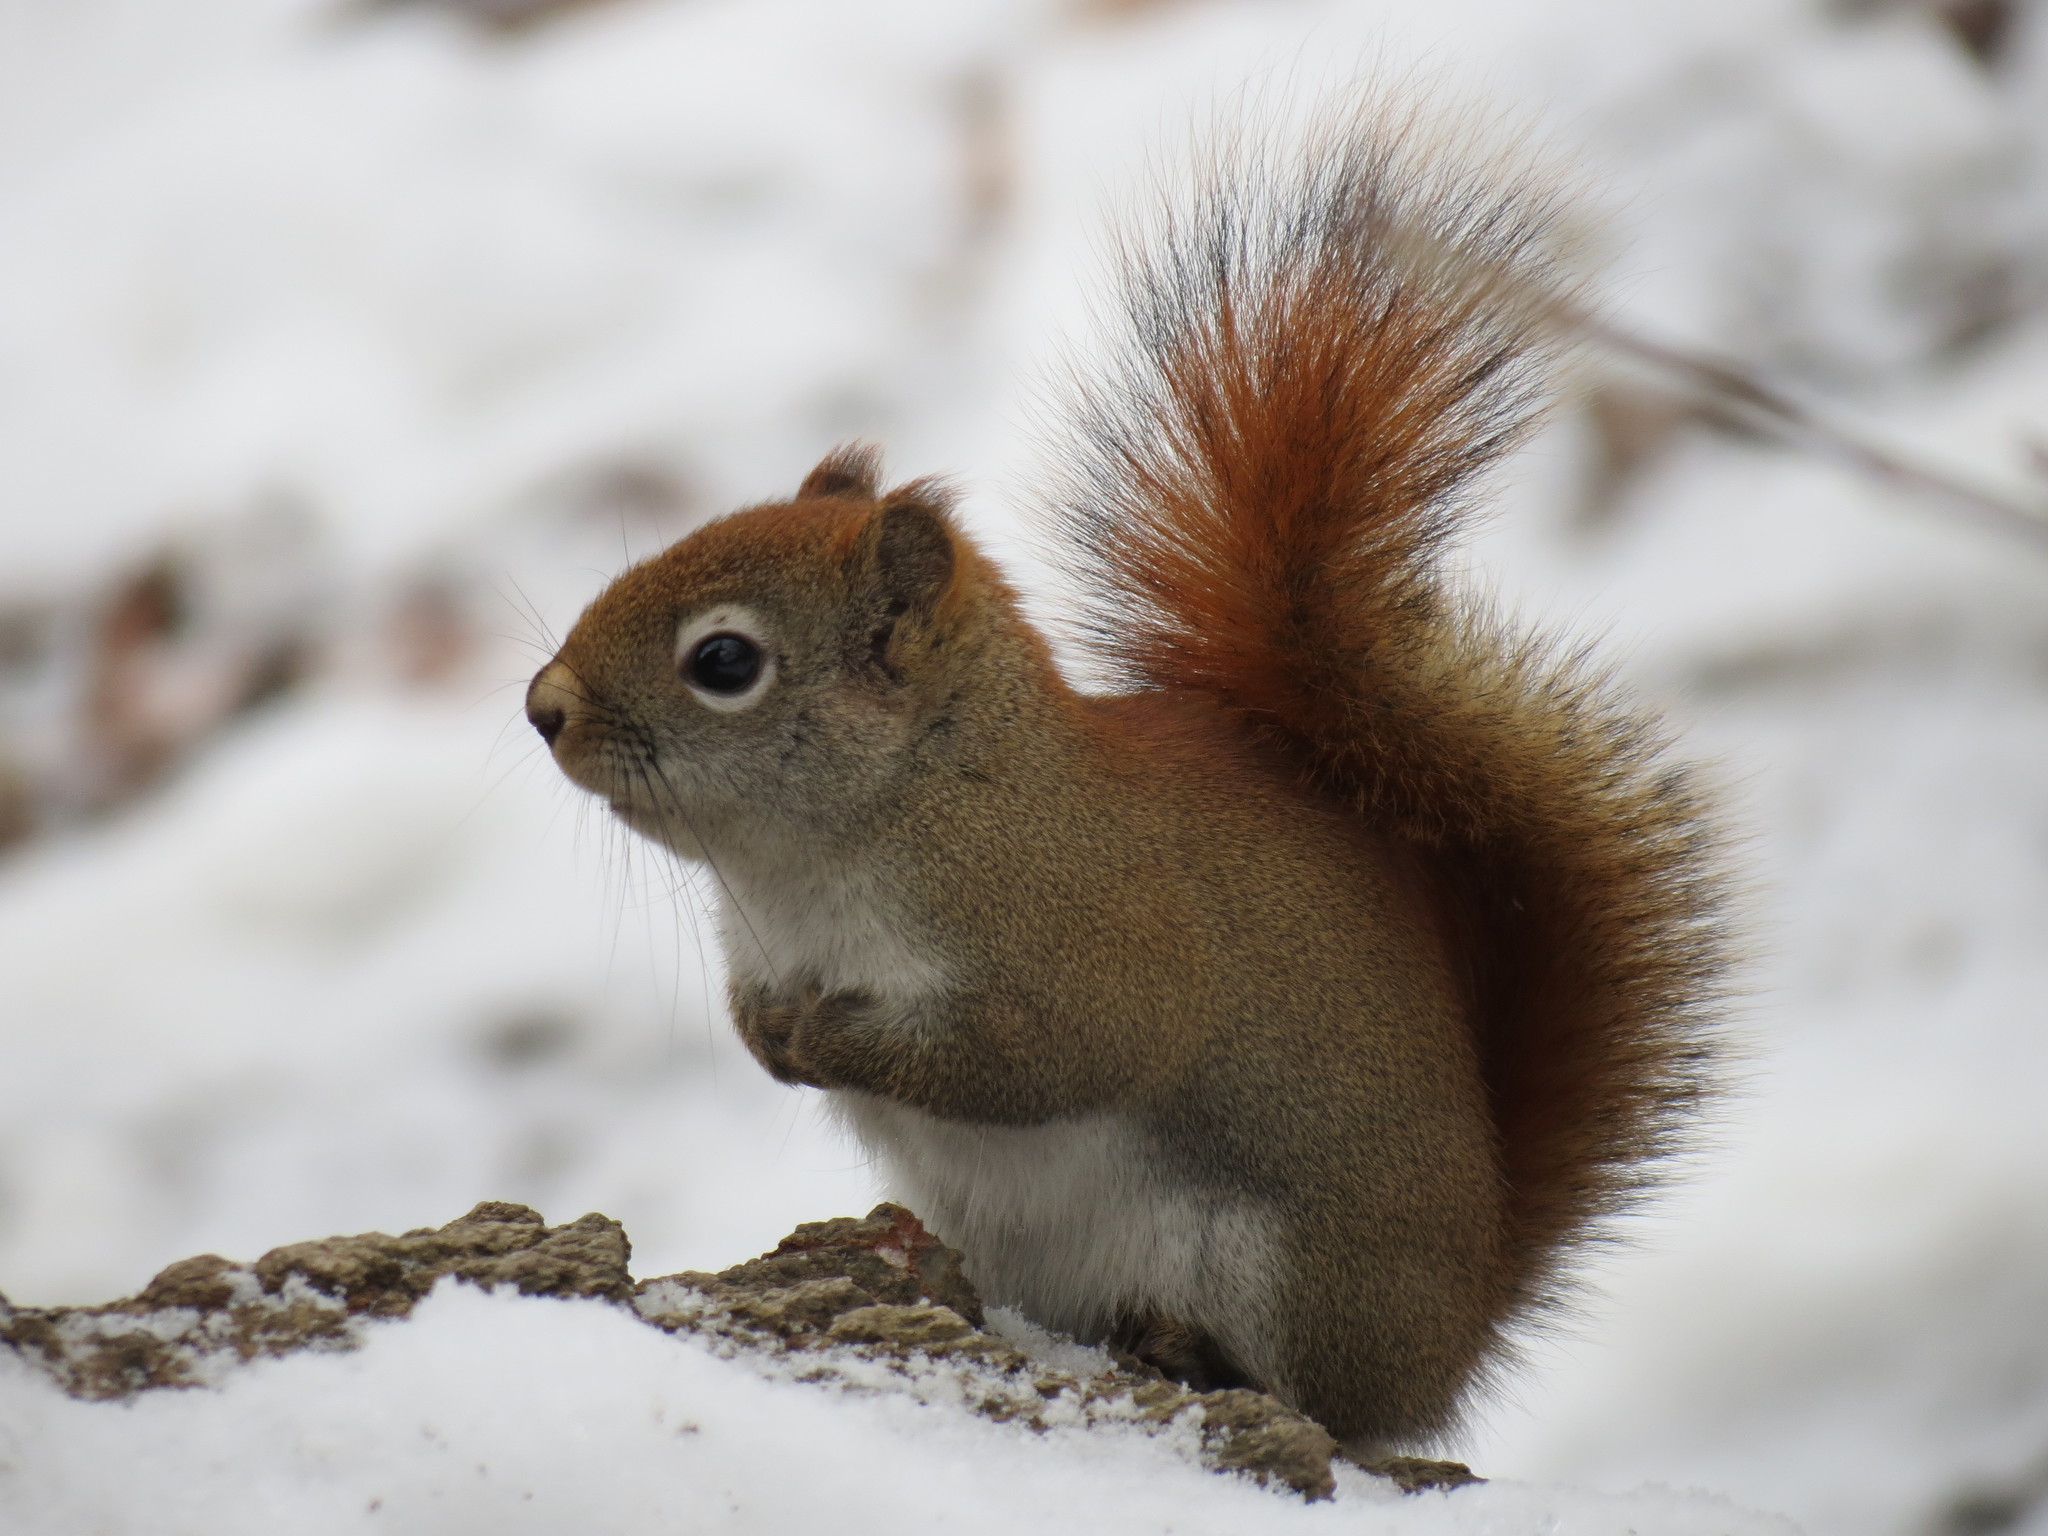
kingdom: Animalia
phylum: Chordata
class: Mammalia
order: Rodentia
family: Sciuridae
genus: Tamiasciurus
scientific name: Tamiasciurus hudsonicus
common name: Red squirrel
